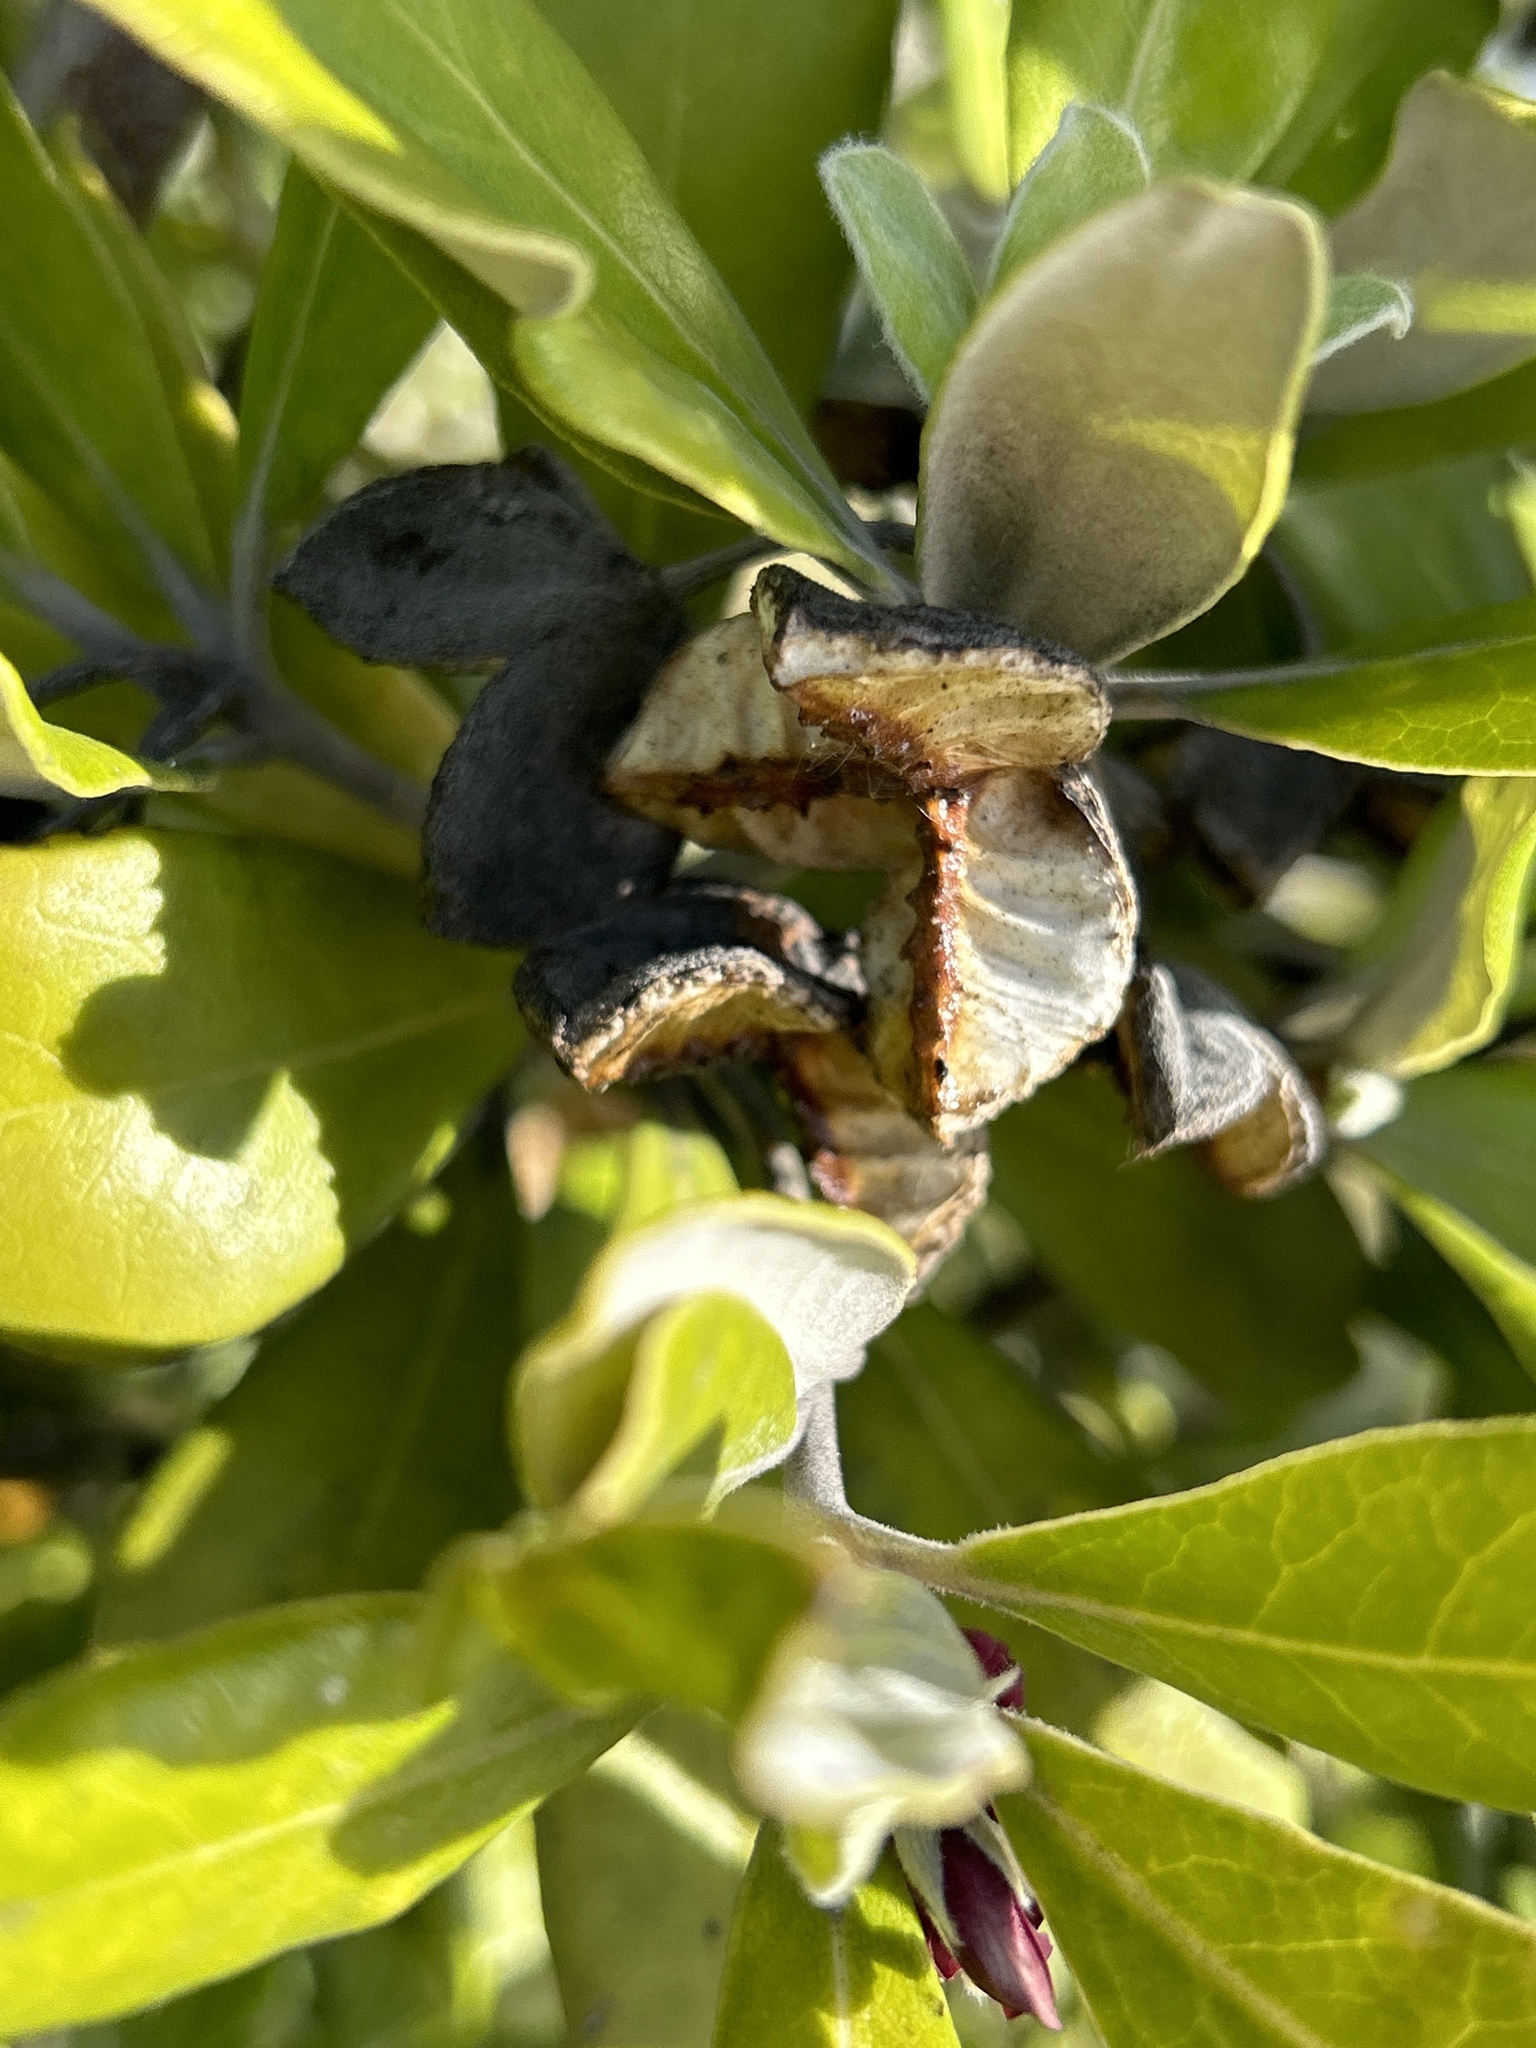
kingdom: Plantae
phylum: Tracheophyta
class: Magnoliopsida
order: Apiales
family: Pittosporaceae
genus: Pittosporum
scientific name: Pittosporum crassifolium
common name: Karo
